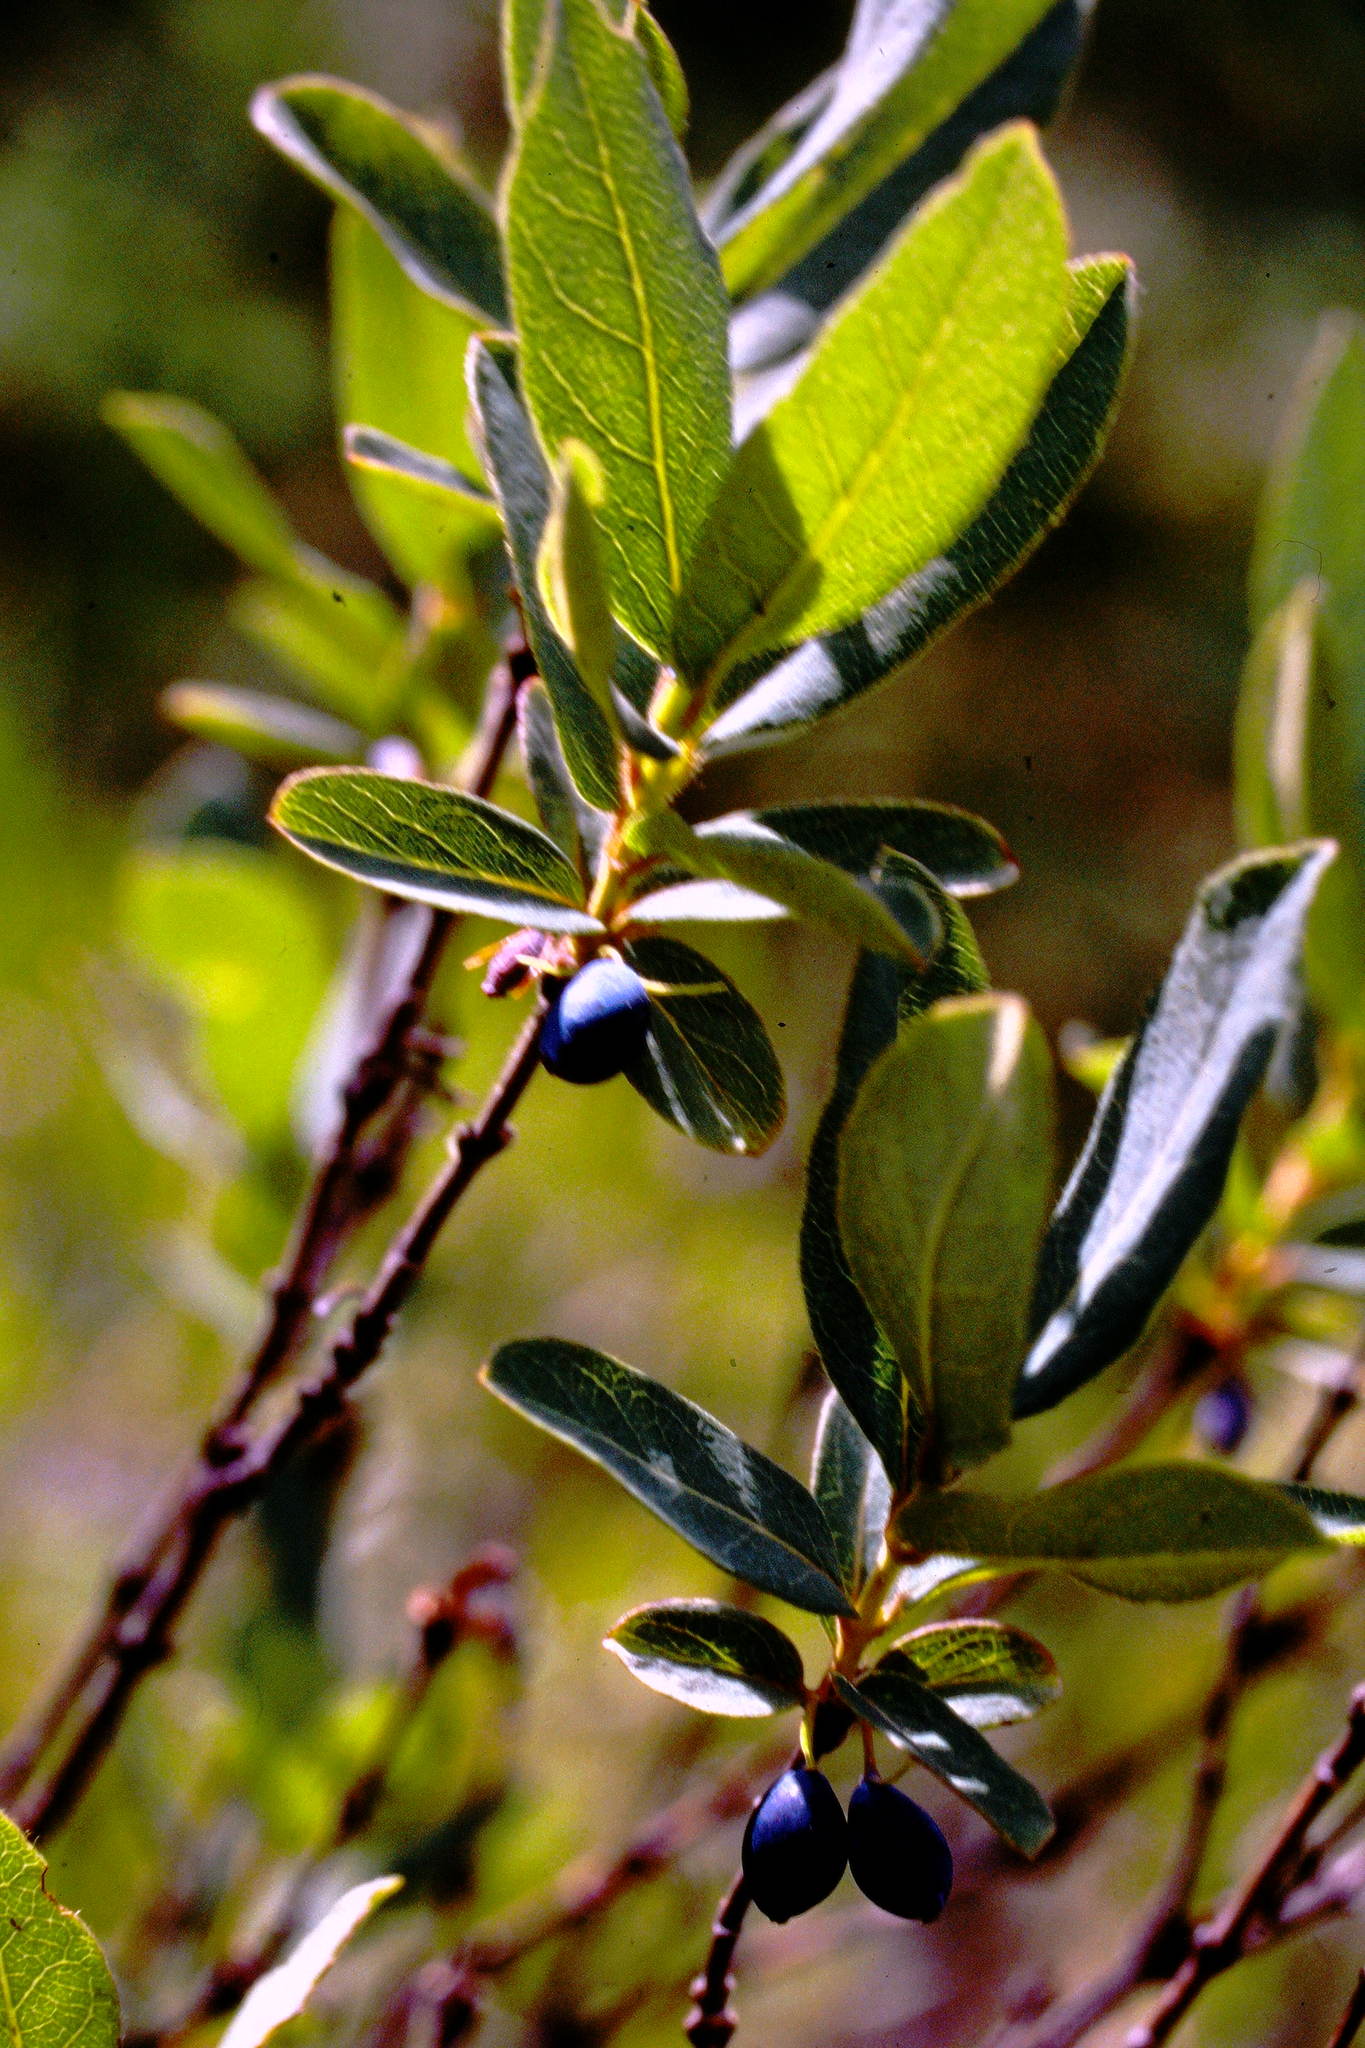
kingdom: Plantae
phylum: Tracheophyta
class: Magnoliopsida
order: Dipsacales
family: Caprifoliaceae
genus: Lonicera
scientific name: Lonicera villosa
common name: Mountain fly-honeysuckle
